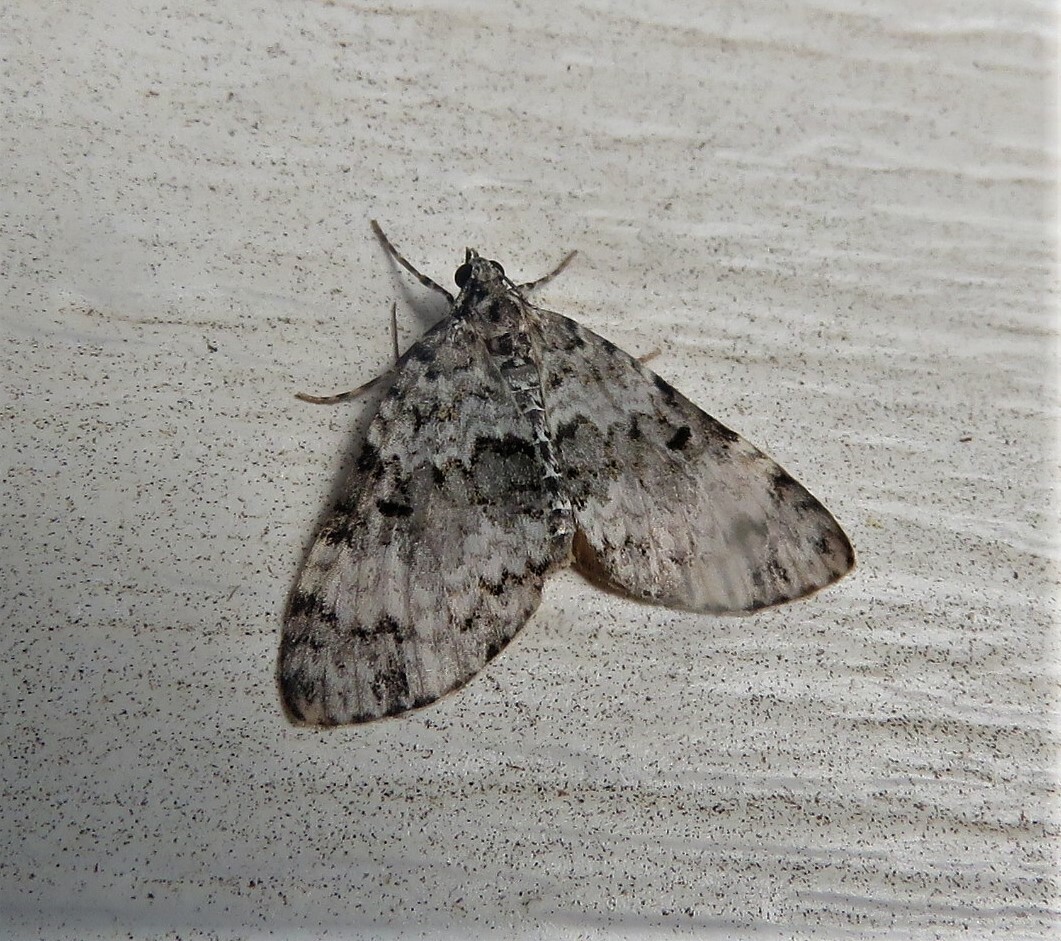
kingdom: Animalia
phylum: Arthropoda
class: Insecta
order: Lepidoptera
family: Geometridae
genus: Spargania
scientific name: Spargania magnoliata
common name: Double-banded carpet
